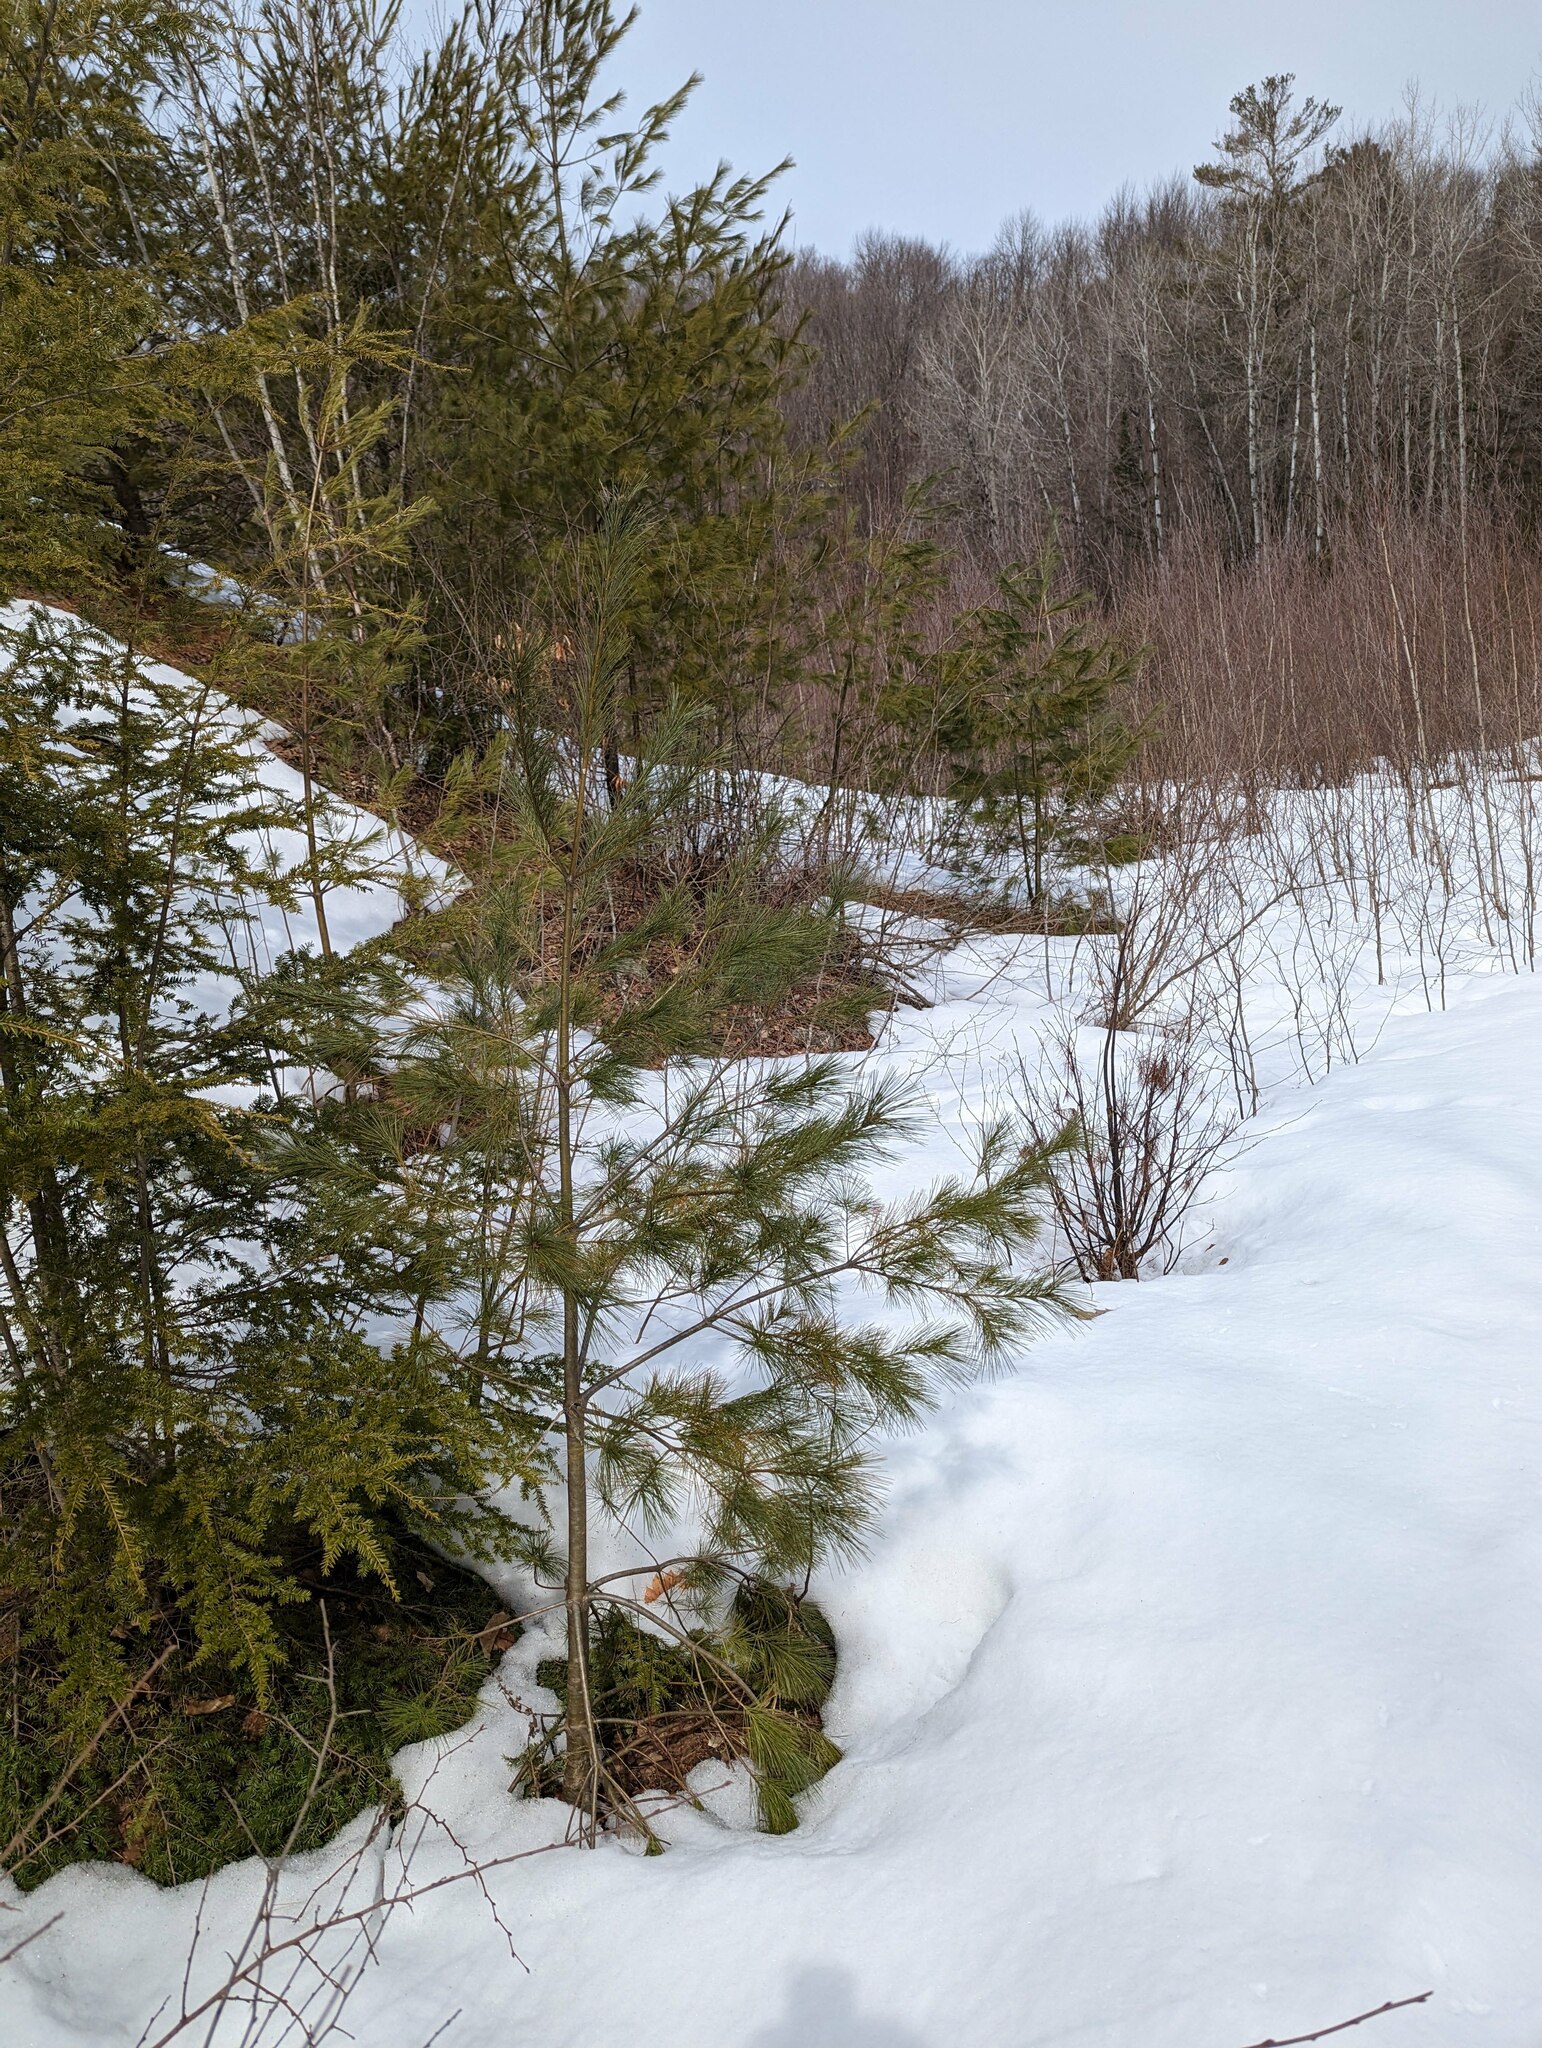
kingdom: Plantae
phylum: Tracheophyta
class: Pinopsida
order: Pinales
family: Pinaceae
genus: Pinus
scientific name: Pinus strobus
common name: Weymouth pine
